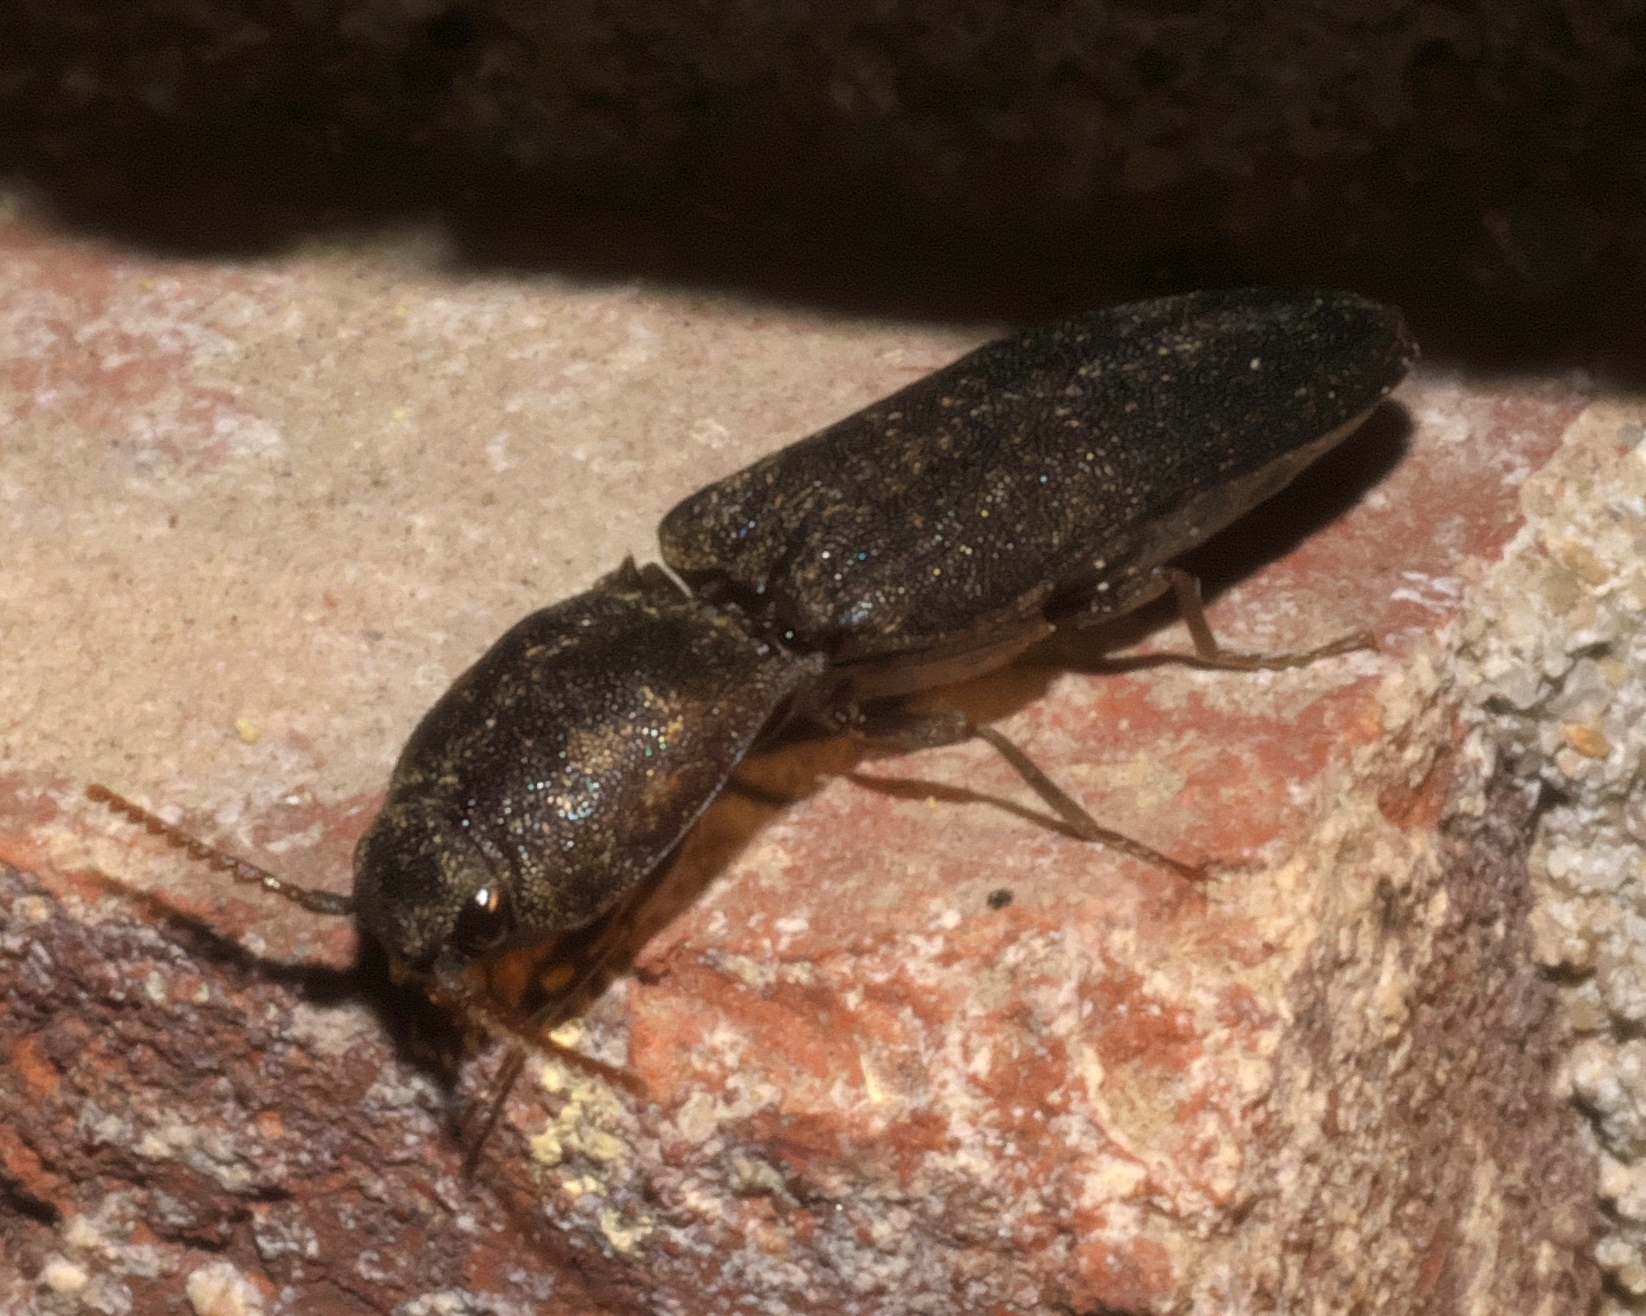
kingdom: Animalia
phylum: Arthropoda
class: Insecta
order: Coleoptera
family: Elateridae
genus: Lacon
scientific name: Lacon avitus
